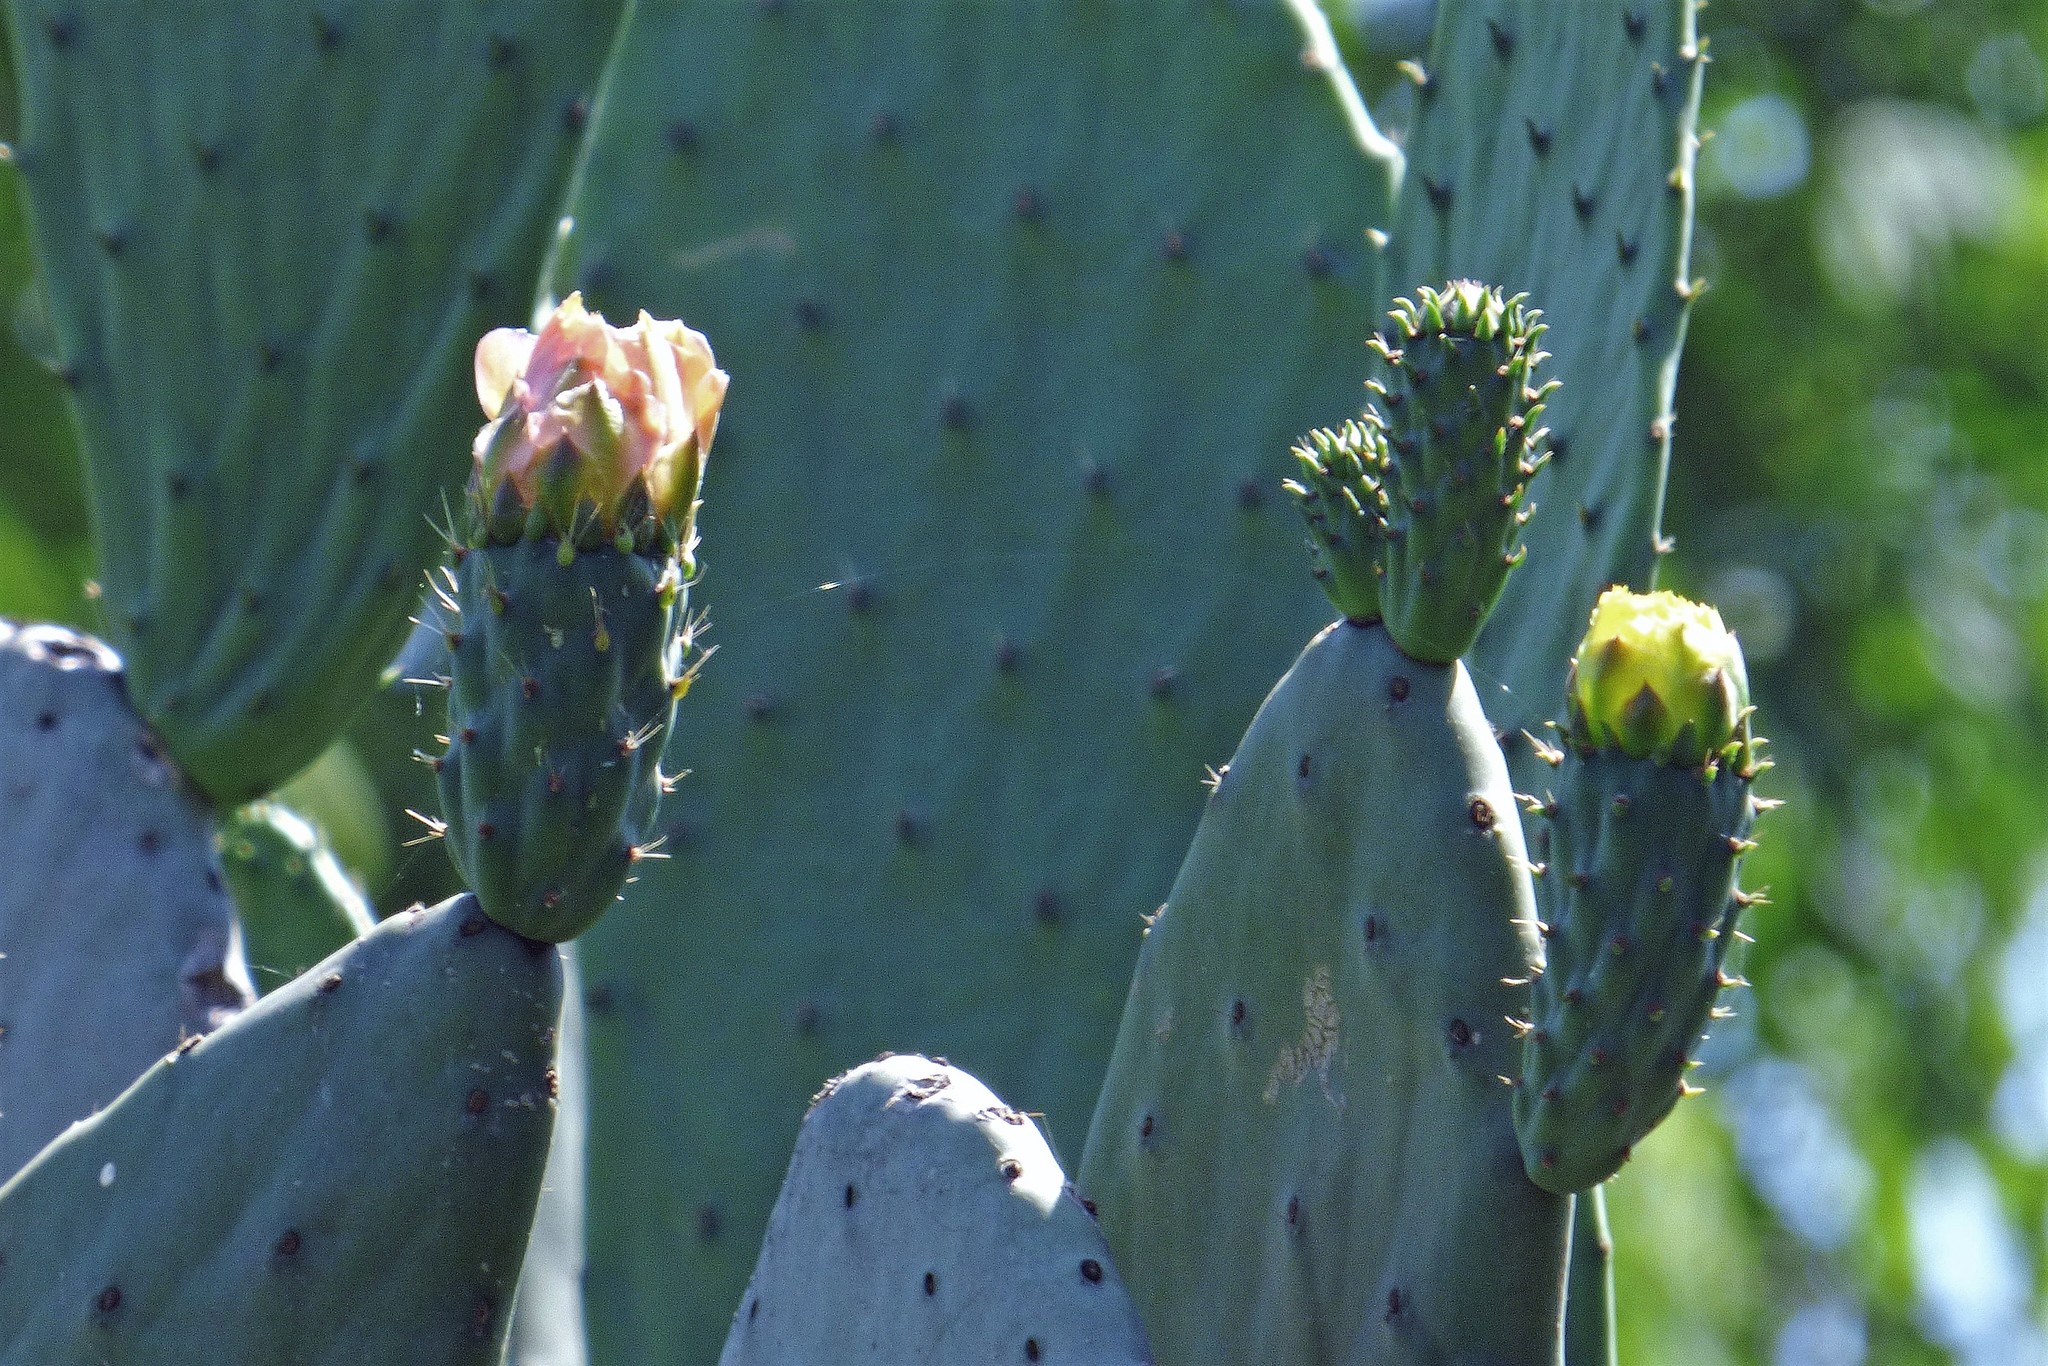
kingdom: Plantae
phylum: Tracheophyta
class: Magnoliopsida
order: Caryophyllales
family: Cactaceae
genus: Opuntia
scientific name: Opuntia ficus-indica
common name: Barbary fig
